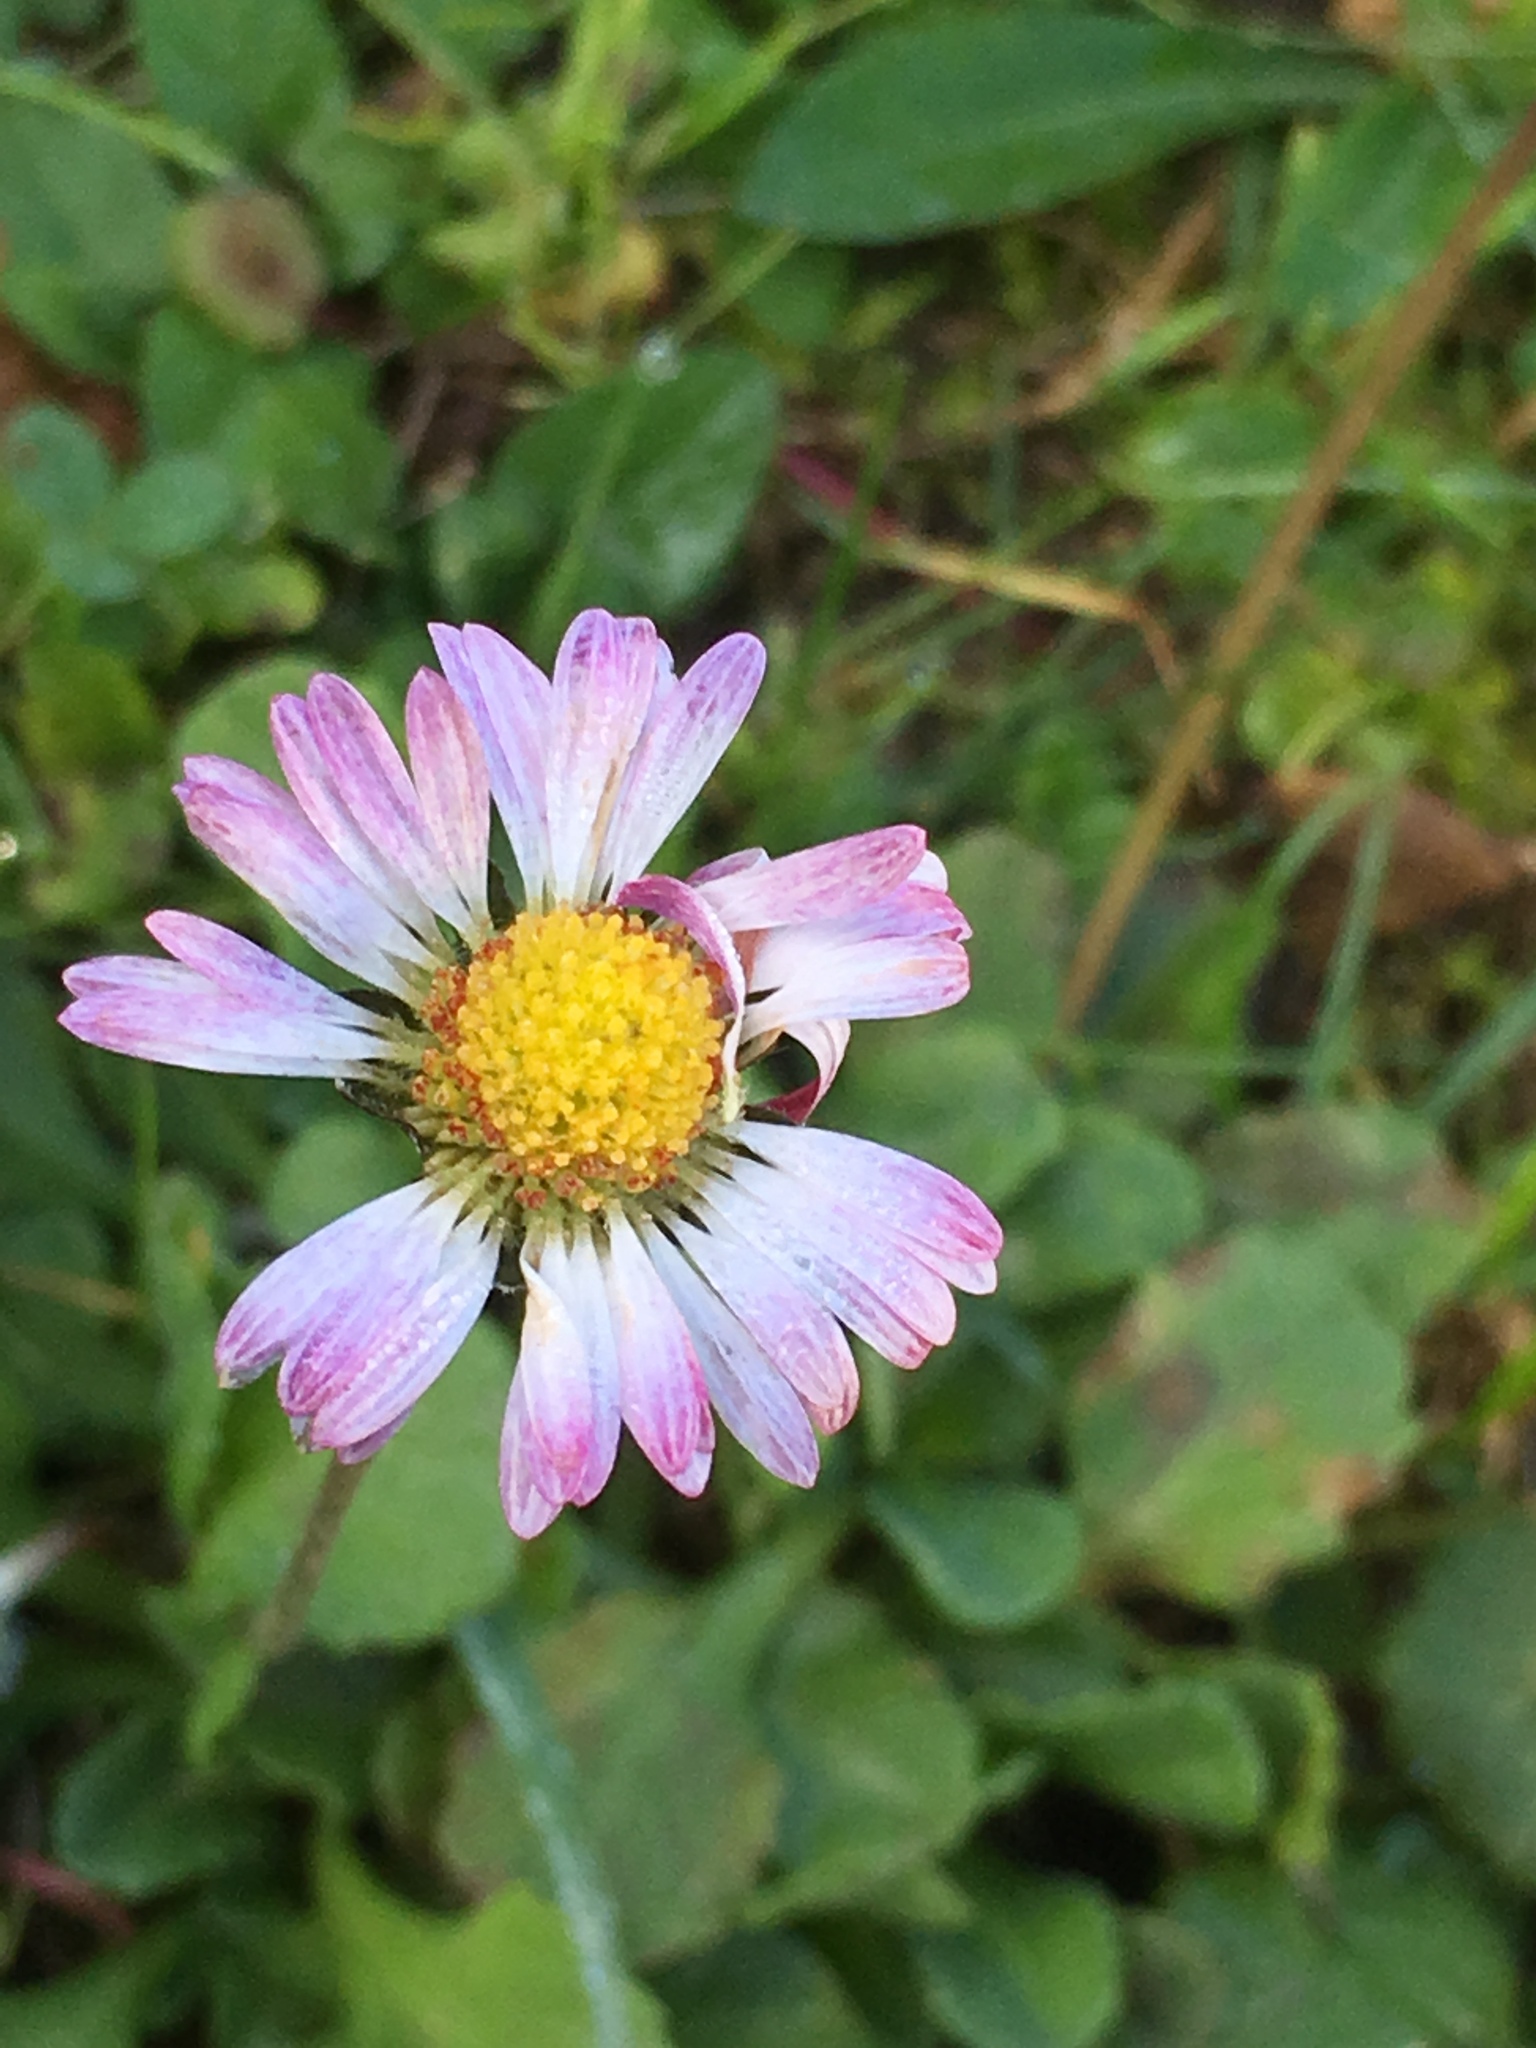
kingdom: Plantae
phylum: Tracheophyta
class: Magnoliopsida
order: Asterales
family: Asteraceae
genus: Bellis
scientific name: Bellis perennis
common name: Lawndaisy
